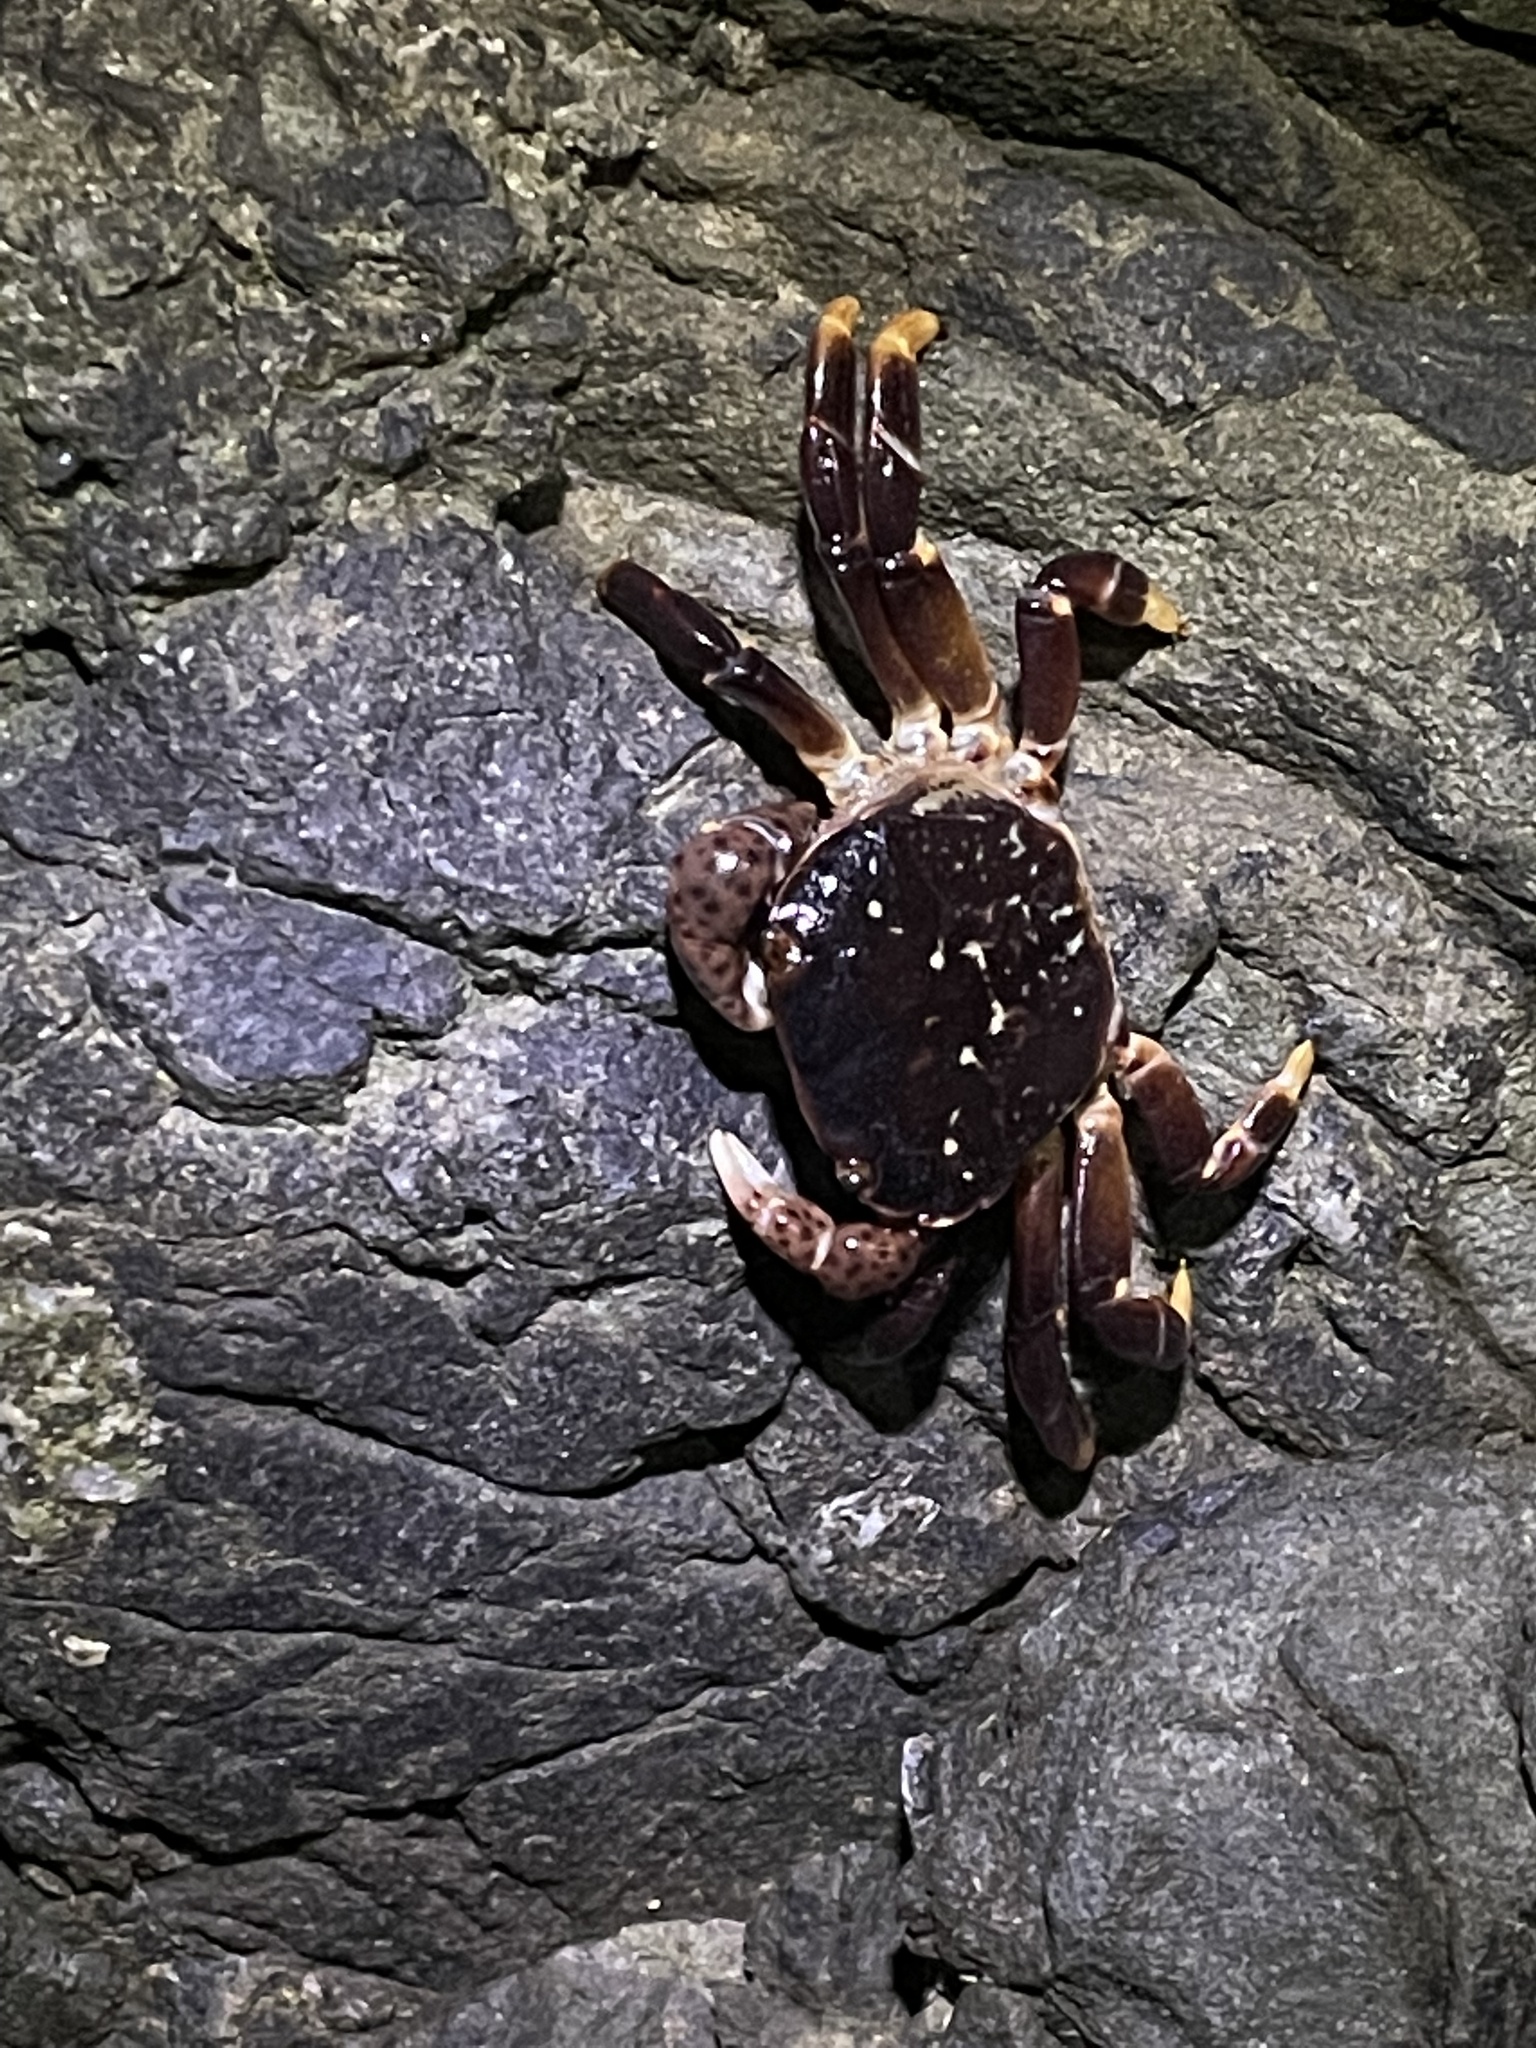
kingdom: Animalia
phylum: Arthropoda
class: Malacostraca
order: Decapoda
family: Varunidae
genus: Hemigrapsus
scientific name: Hemigrapsus nudus
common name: Purple shore crab
